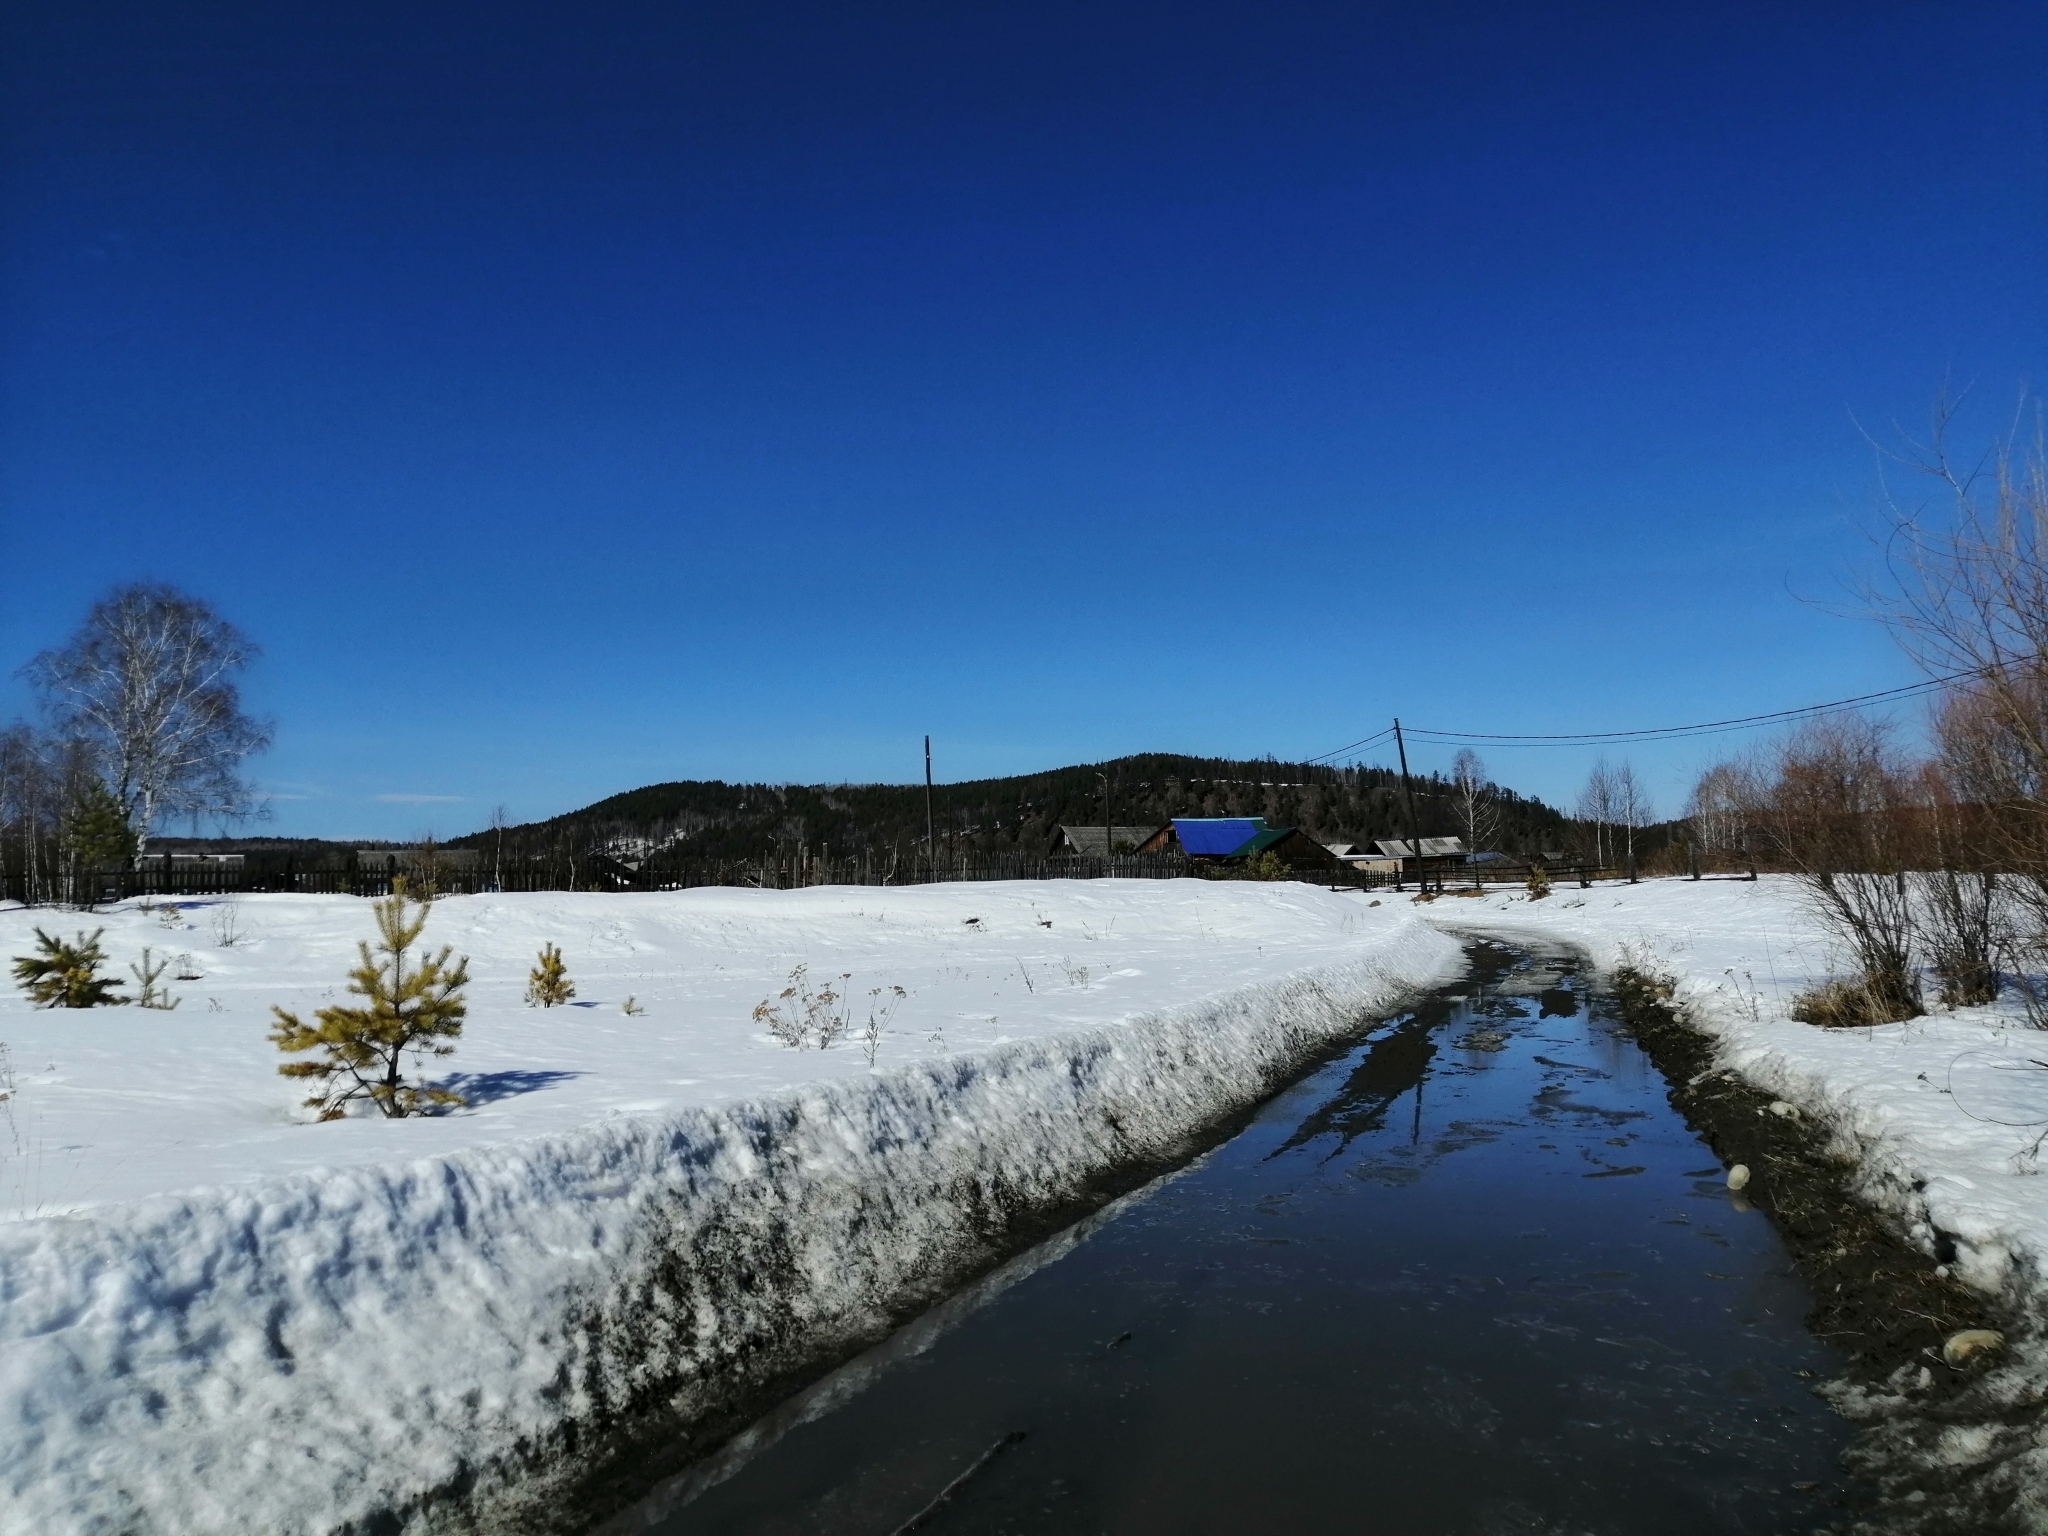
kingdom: Plantae
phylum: Tracheophyta
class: Pinopsida
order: Pinales
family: Pinaceae
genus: Pinus
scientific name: Pinus sylvestris
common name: Scots pine
